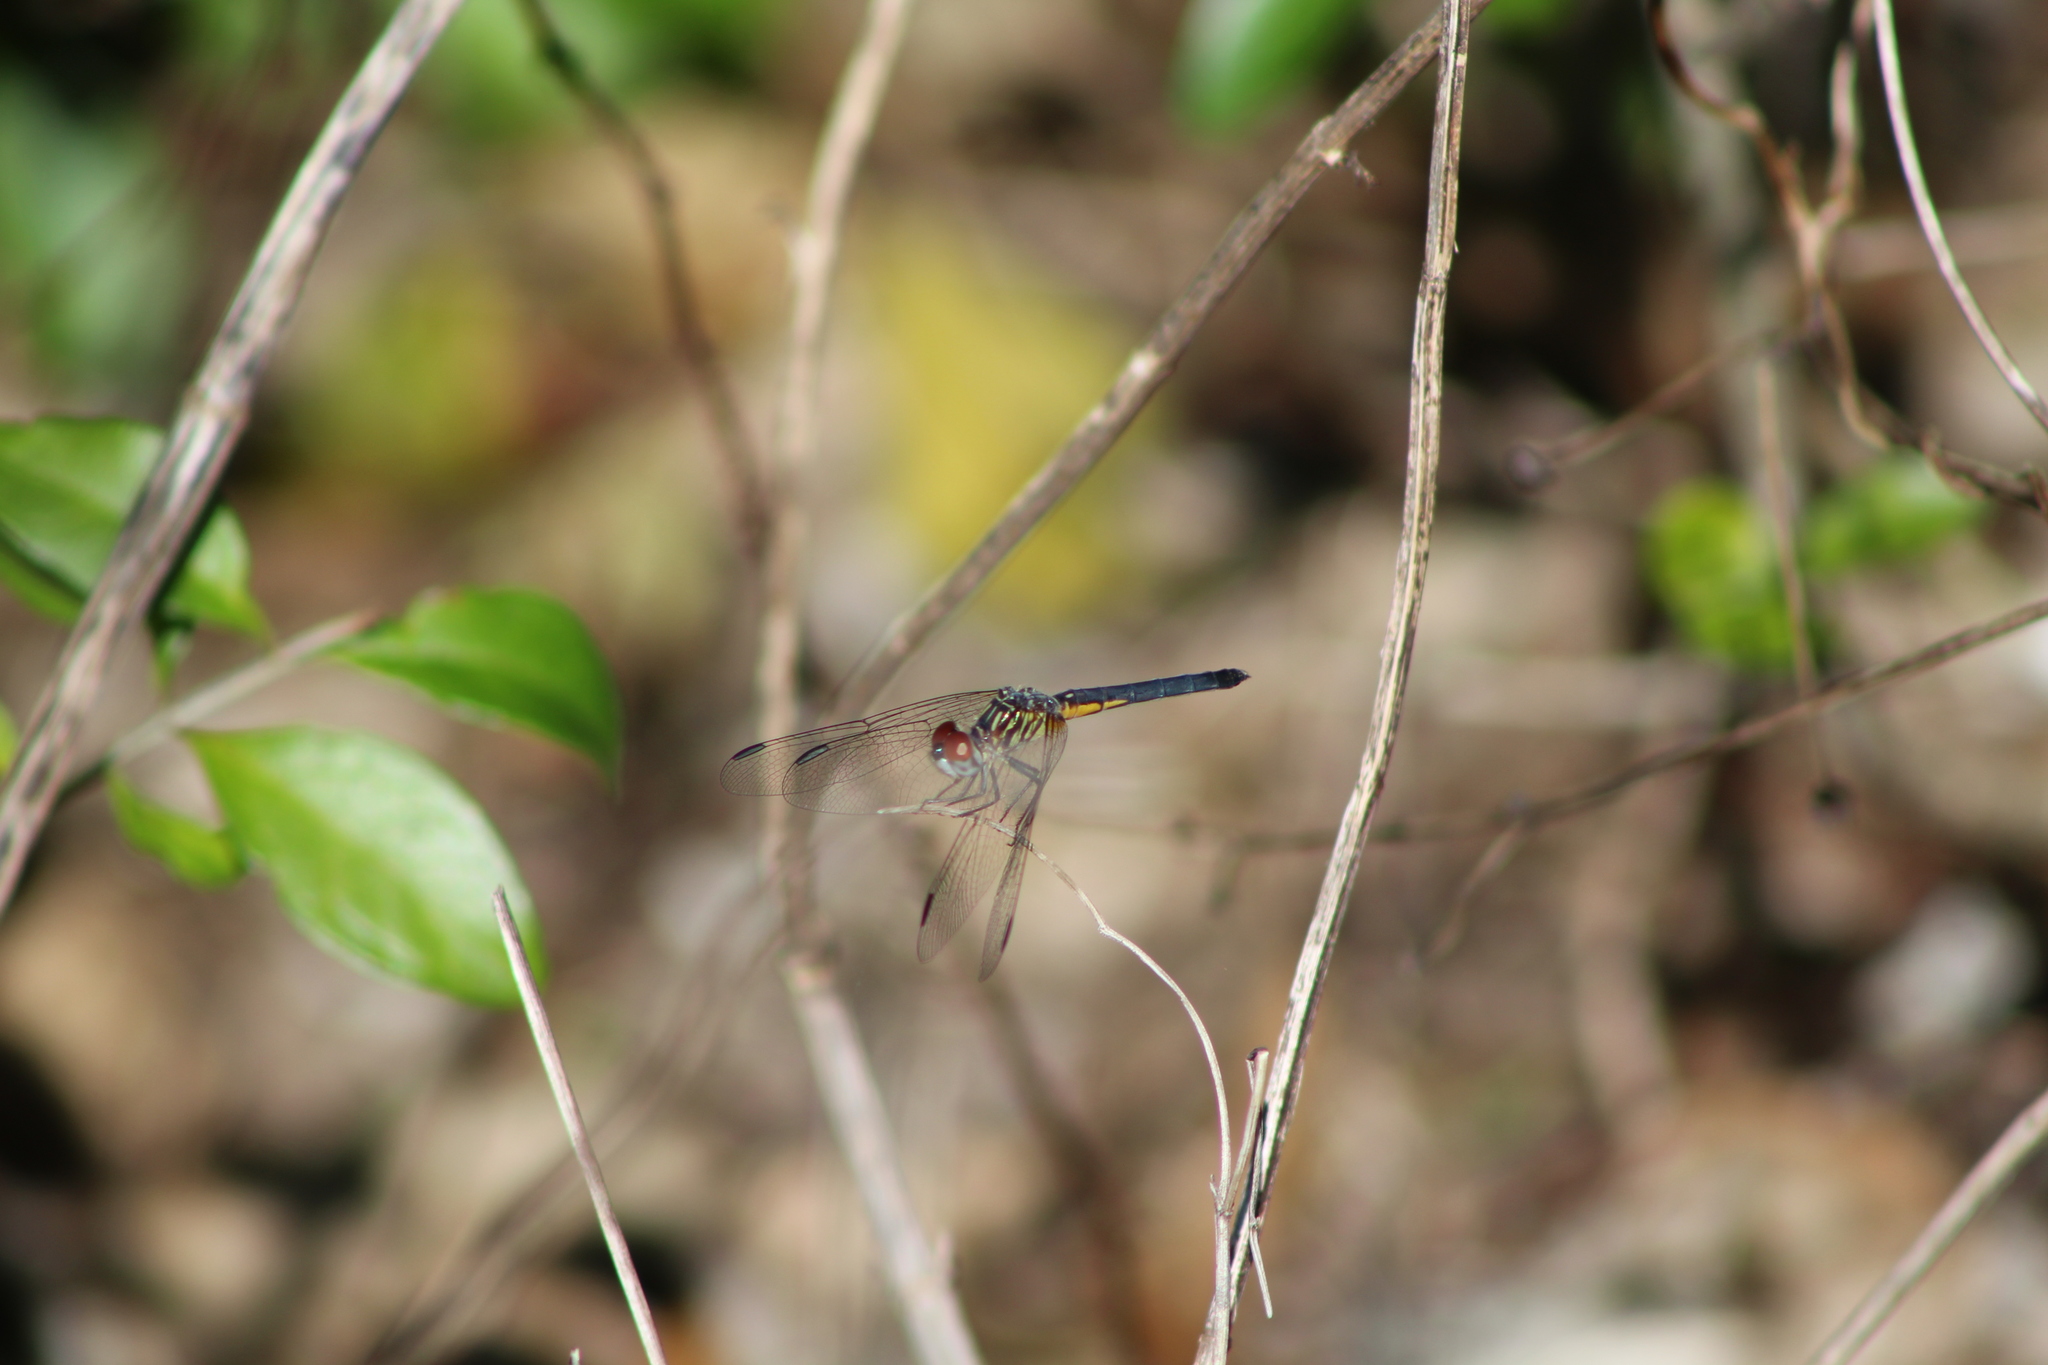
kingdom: Animalia
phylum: Arthropoda
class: Insecta
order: Odonata
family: Libellulidae
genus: Pachydiplax
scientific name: Pachydiplax longipennis
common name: Blue dasher
